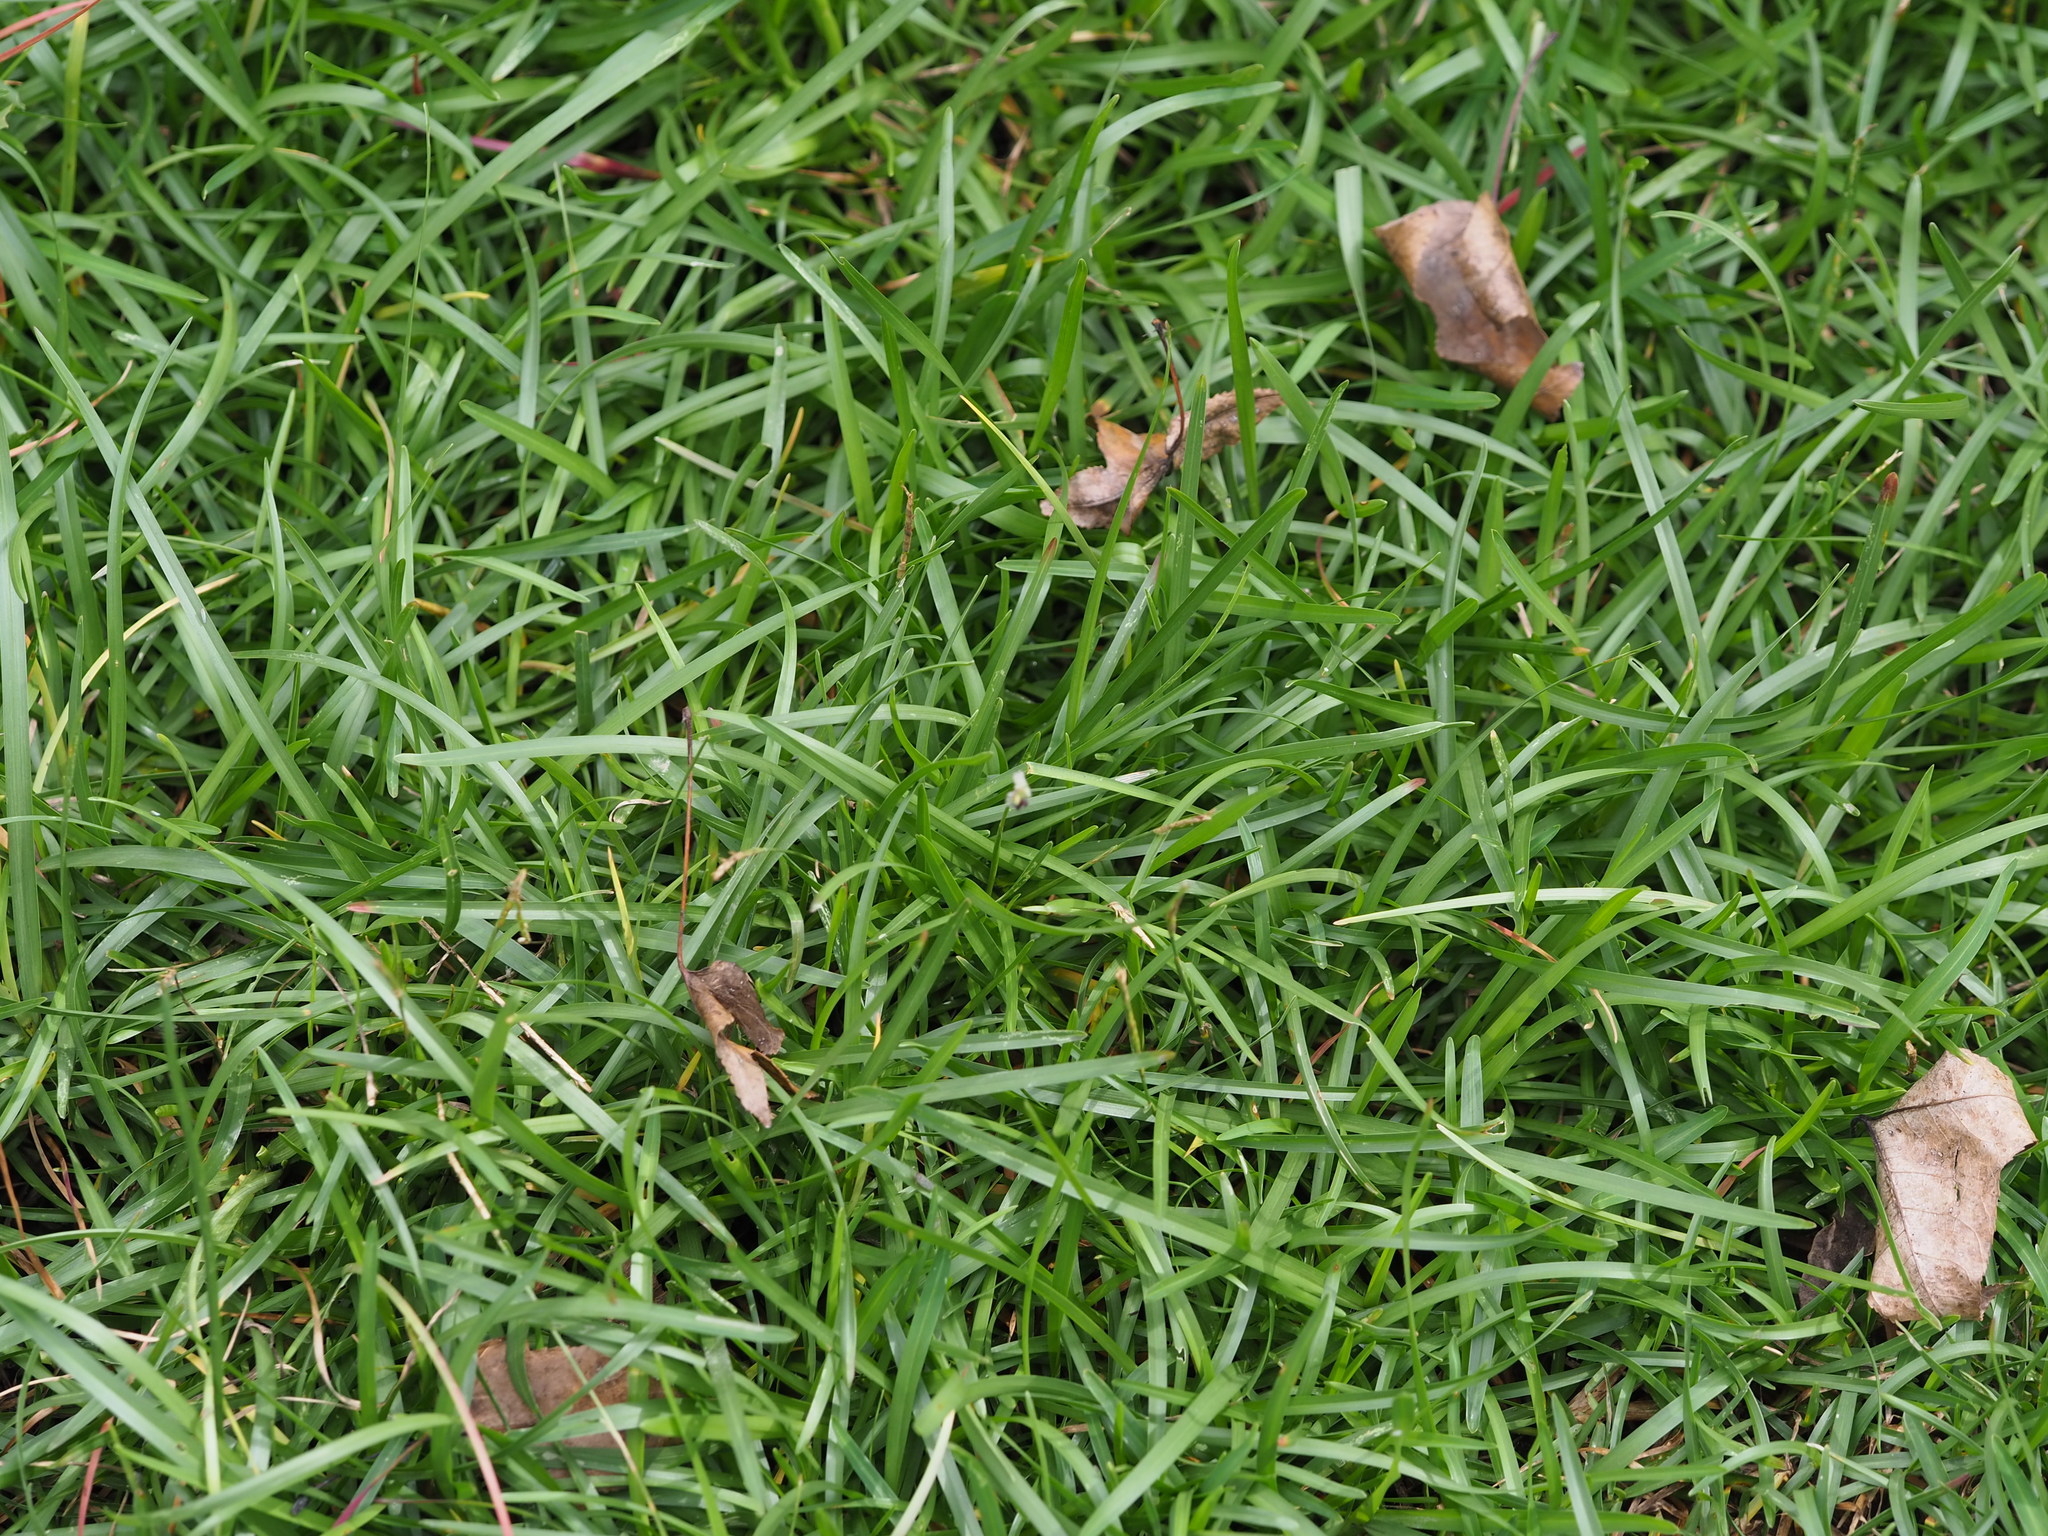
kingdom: Plantae
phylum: Tracheophyta
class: Liliopsida
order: Poales
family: Poaceae
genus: Eremochloa
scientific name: Eremochloa ophiuroides
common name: Centipede grass
